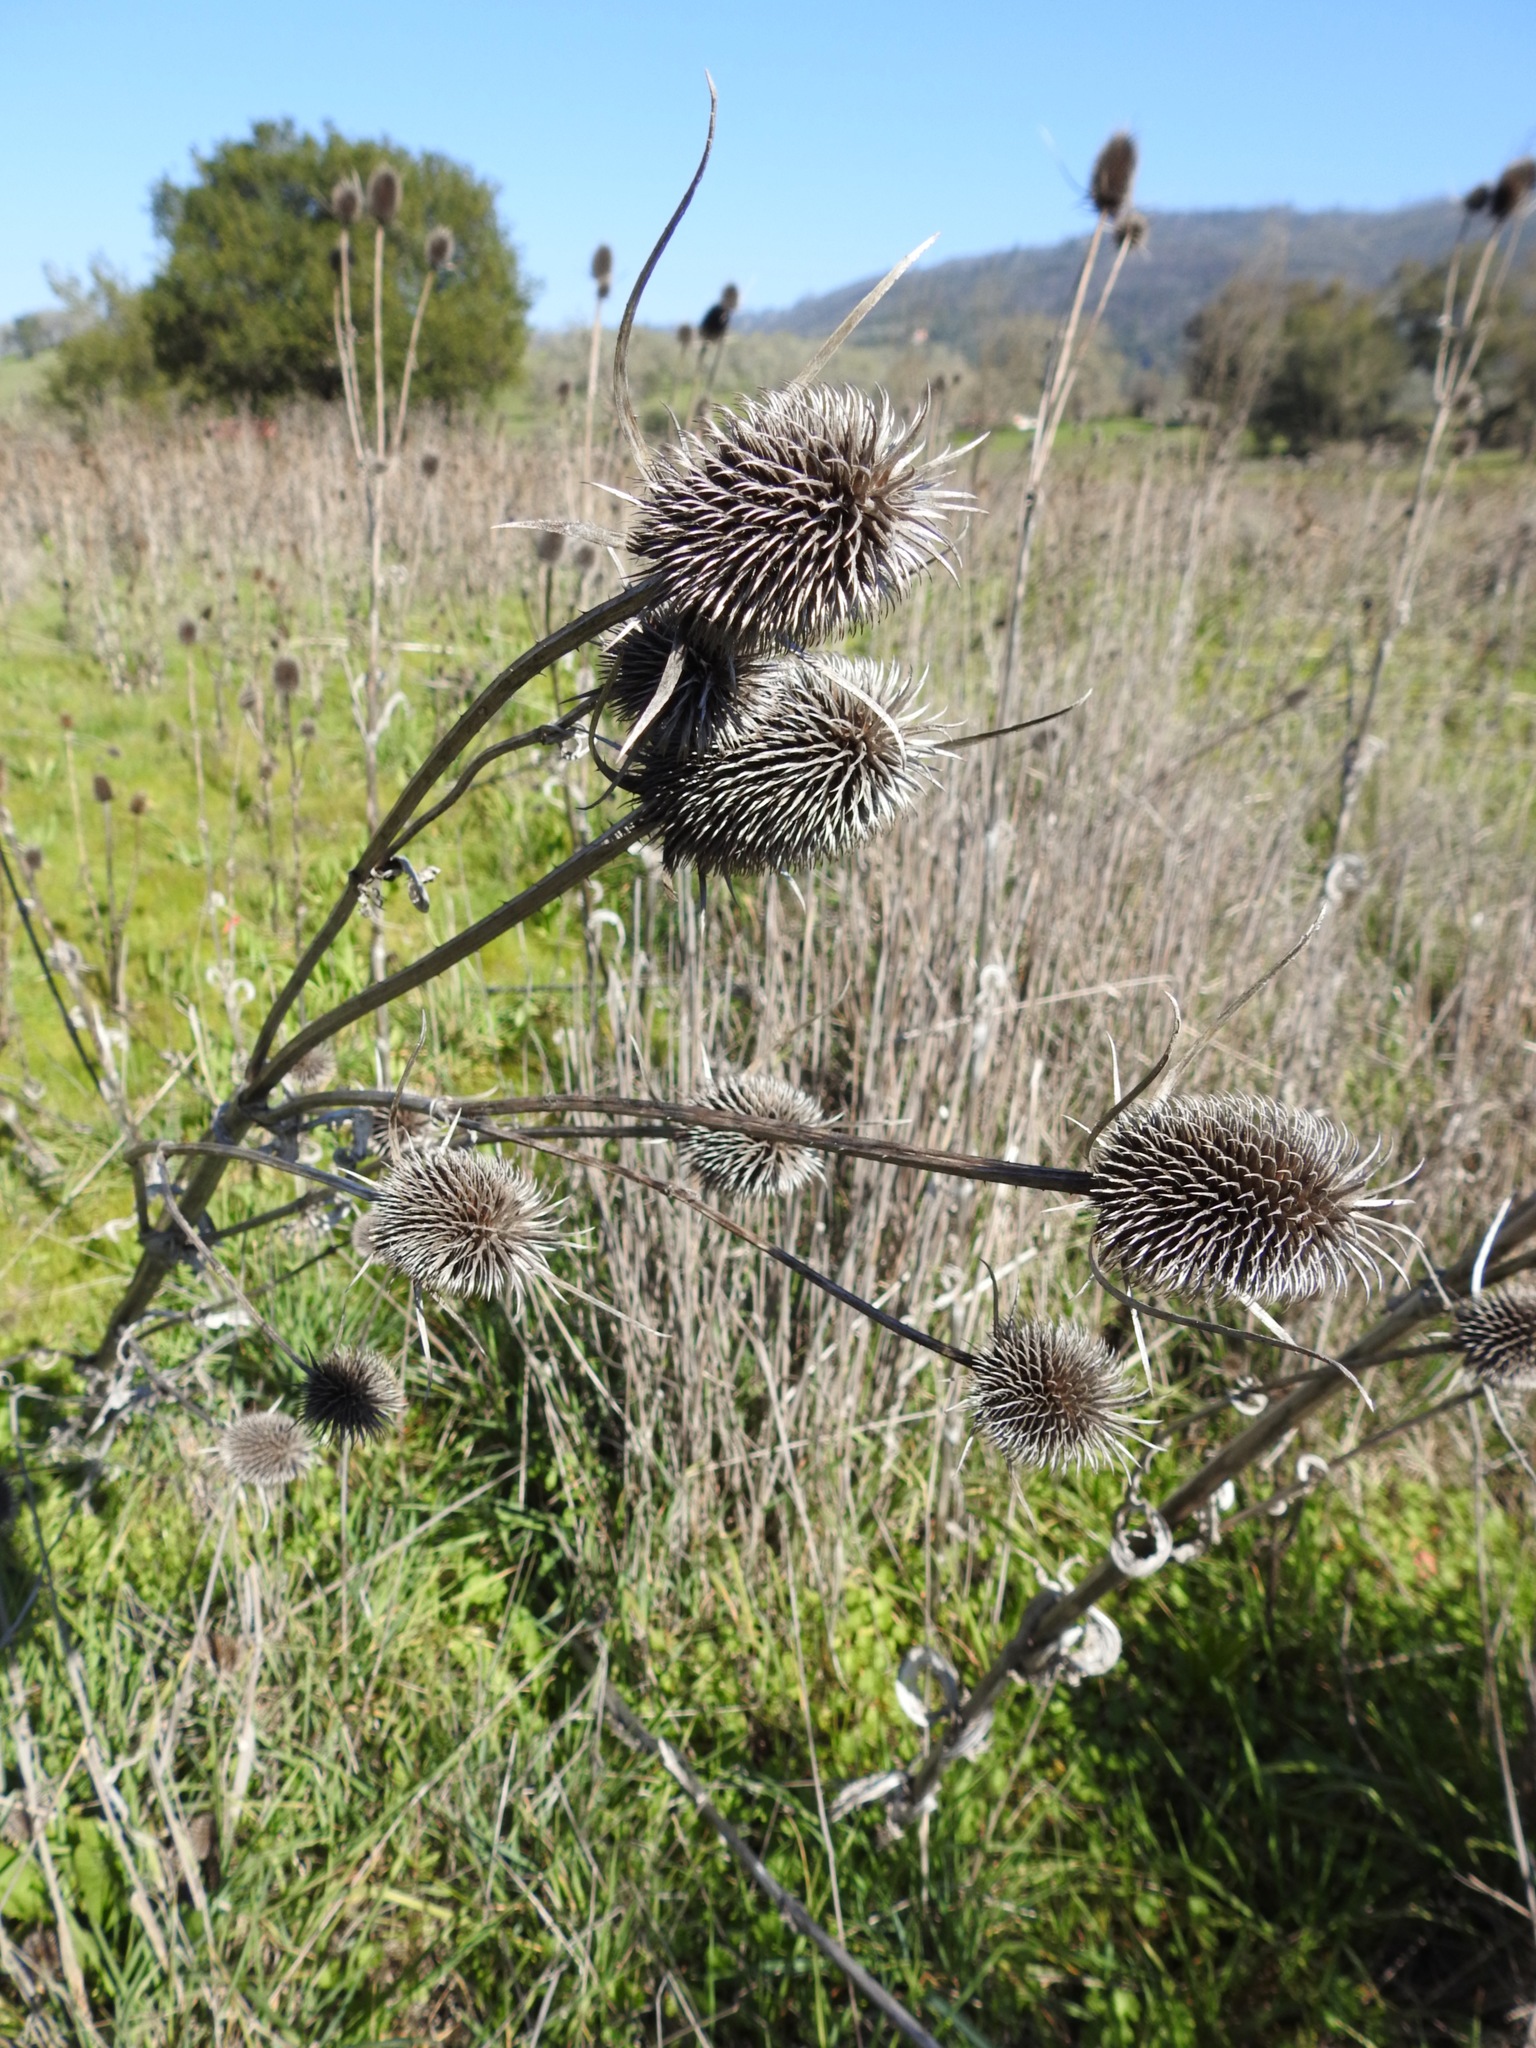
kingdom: Plantae
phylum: Tracheophyta
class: Magnoliopsida
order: Dipsacales
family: Caprifoliaceae
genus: Dipsacus
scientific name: Dipsacus sativus
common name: Fuller's teasel
